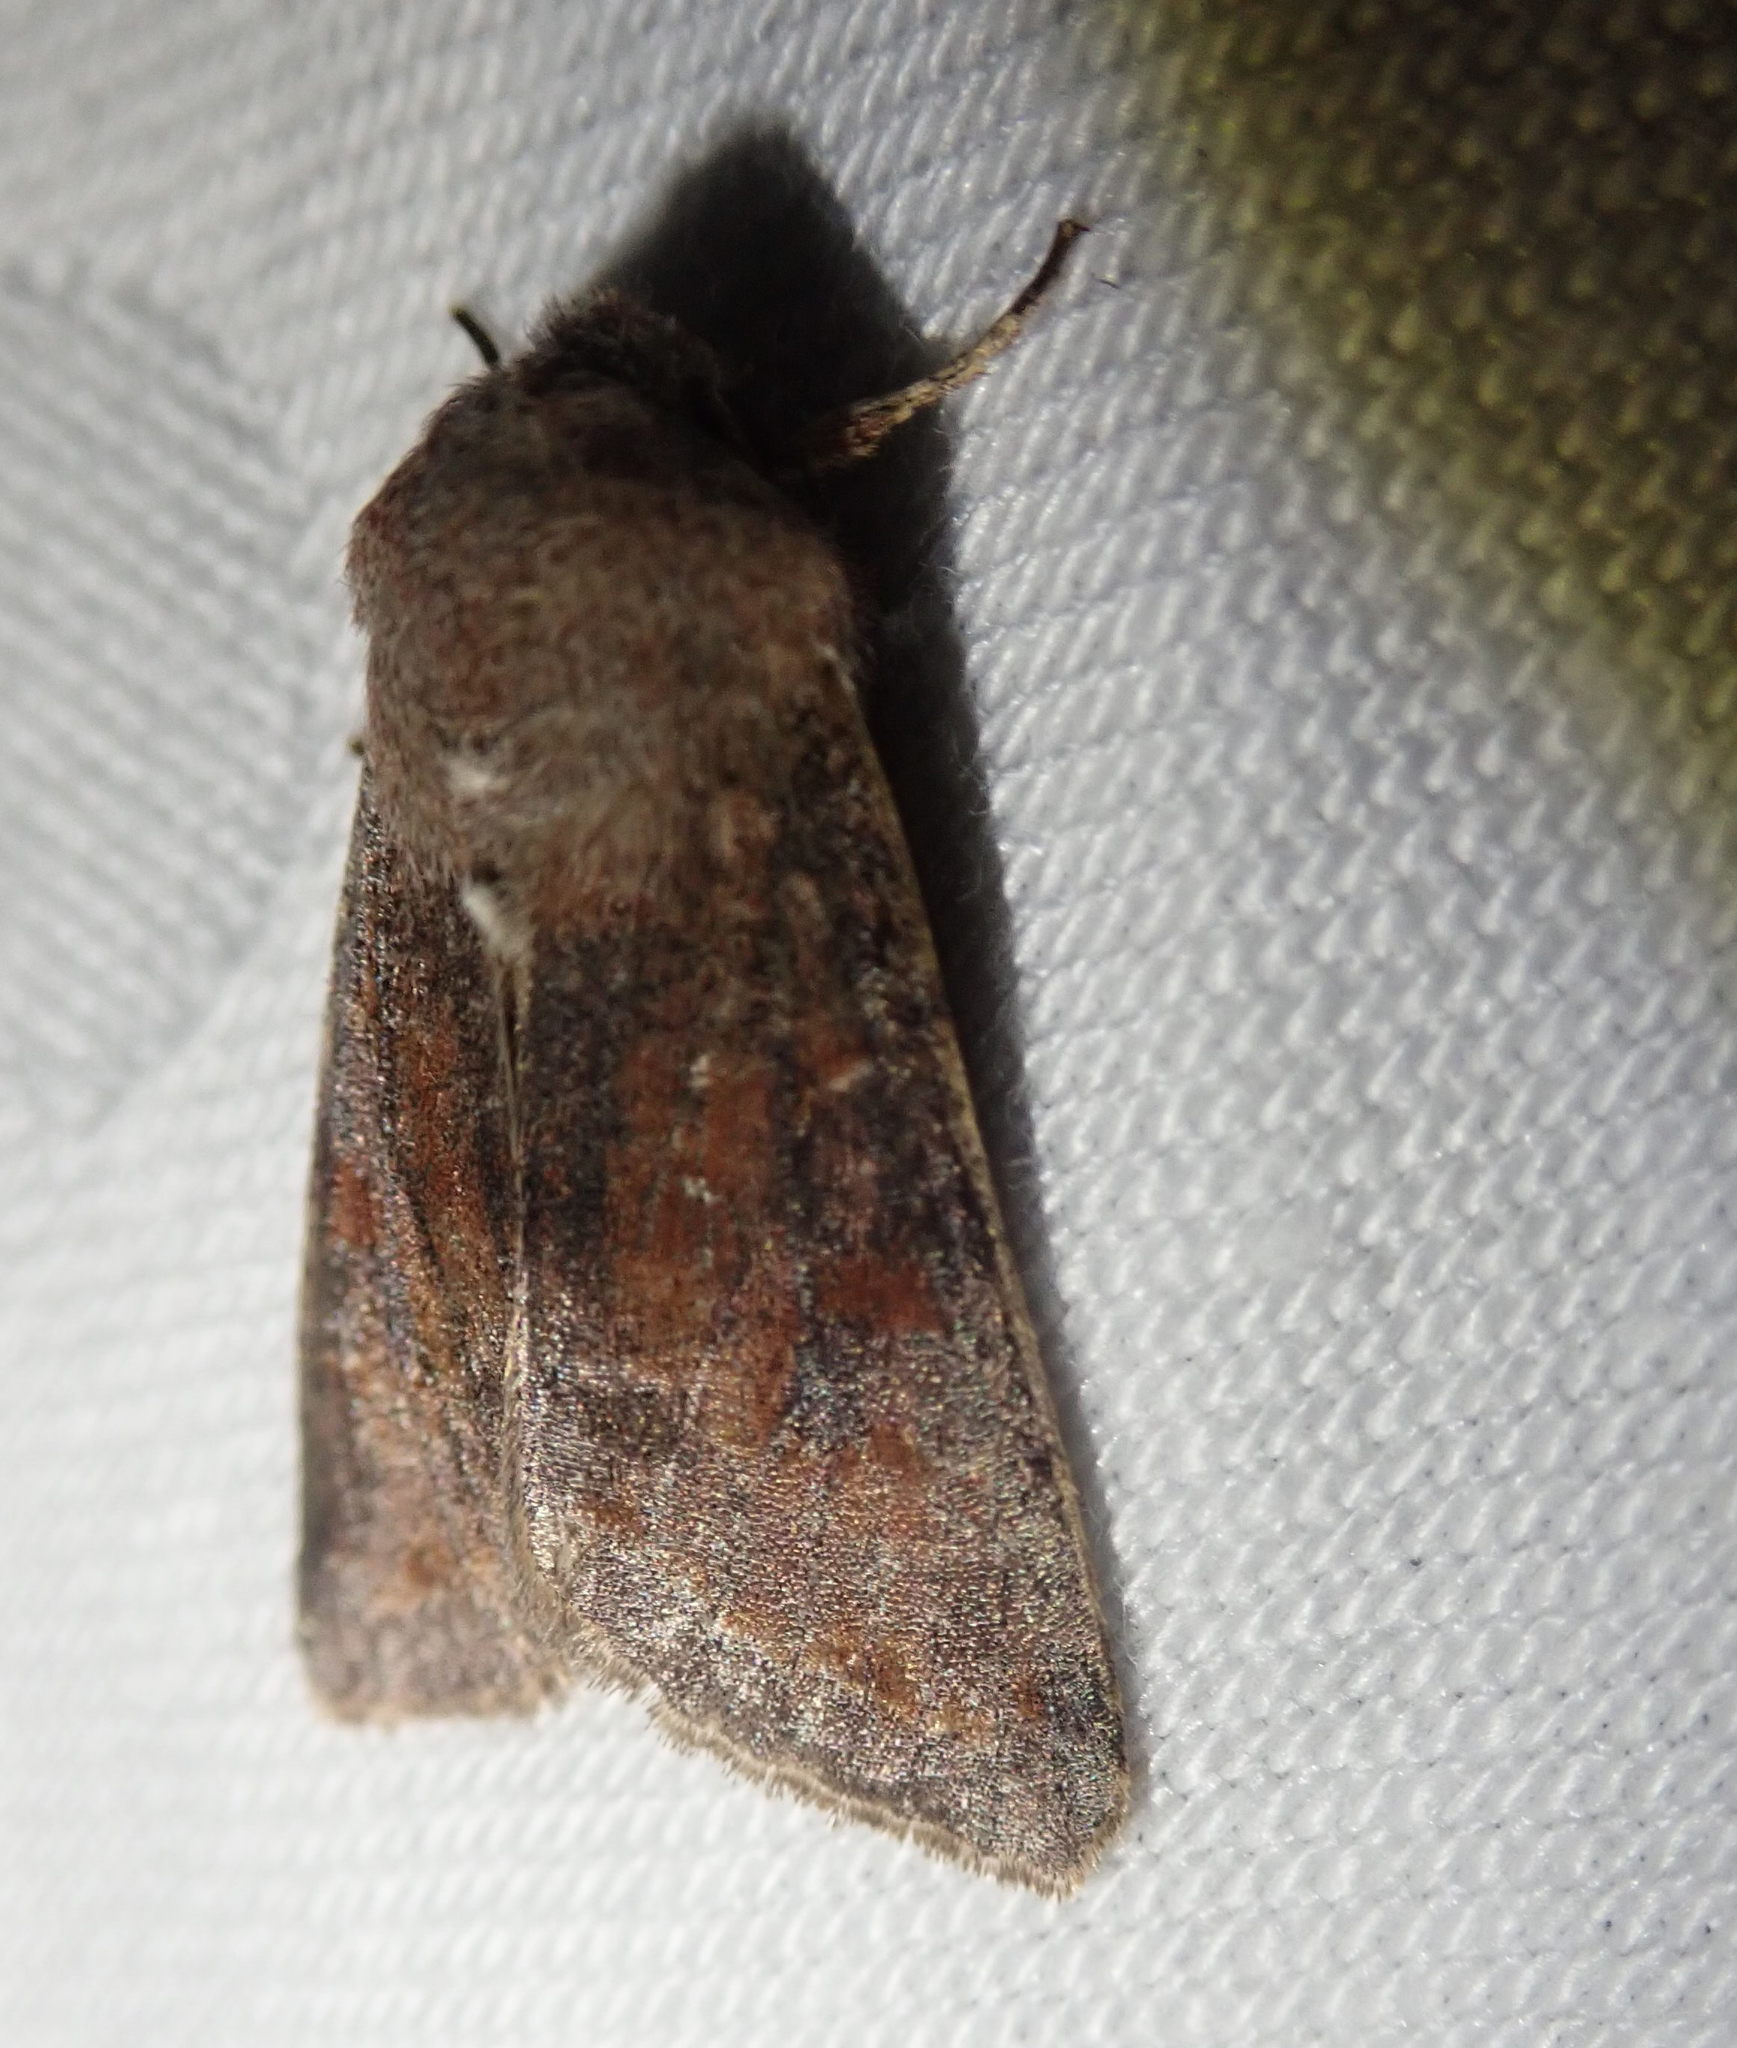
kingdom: Animalia
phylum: Arthropoda
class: Insecta
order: Lepidoptera
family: Noctuidae
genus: Orthosia
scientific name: Orthosia incerta
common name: Clouded drab
